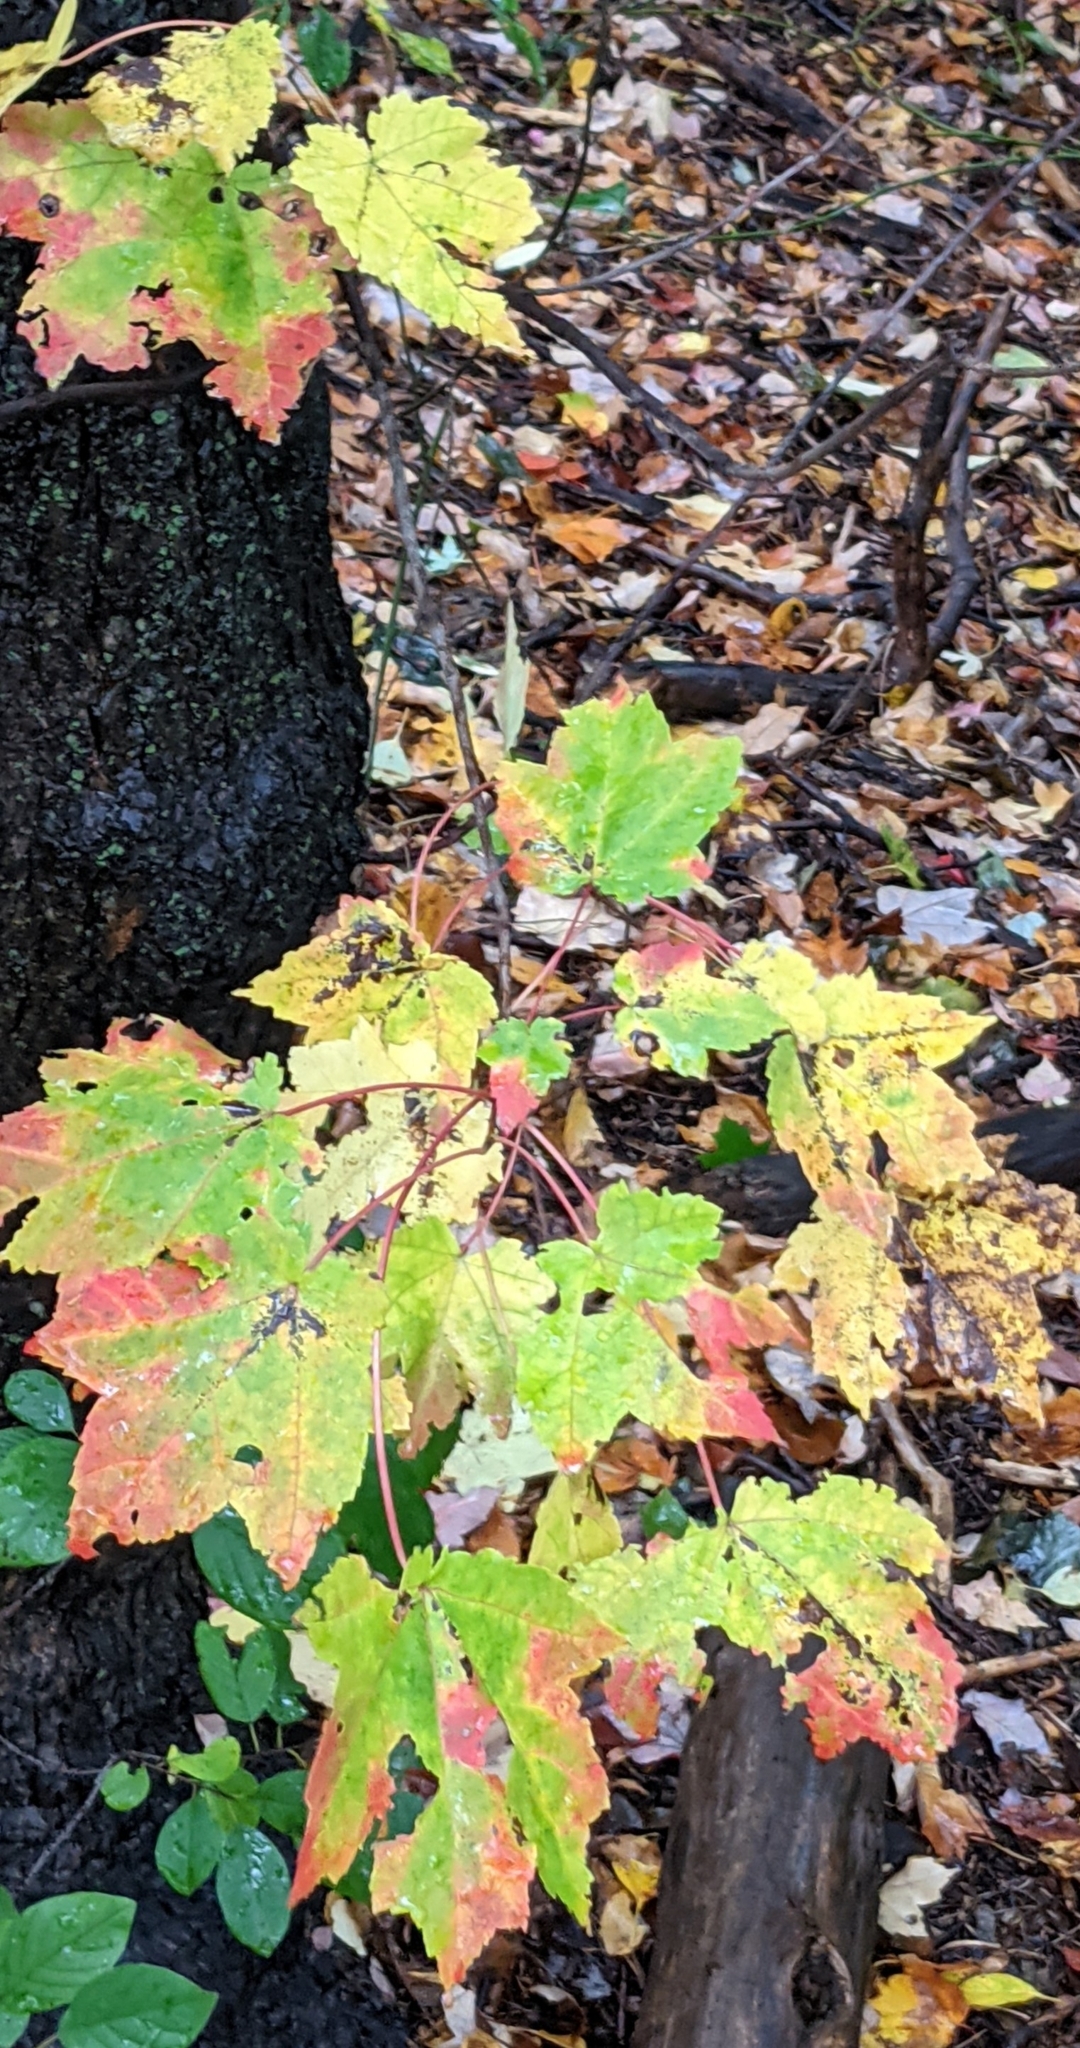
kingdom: Plantae
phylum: Tracheophyta
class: Magnoliopsida
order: Sapindales
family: Sapindaceae
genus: Acer
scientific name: Acer rubrum
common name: Red maple
